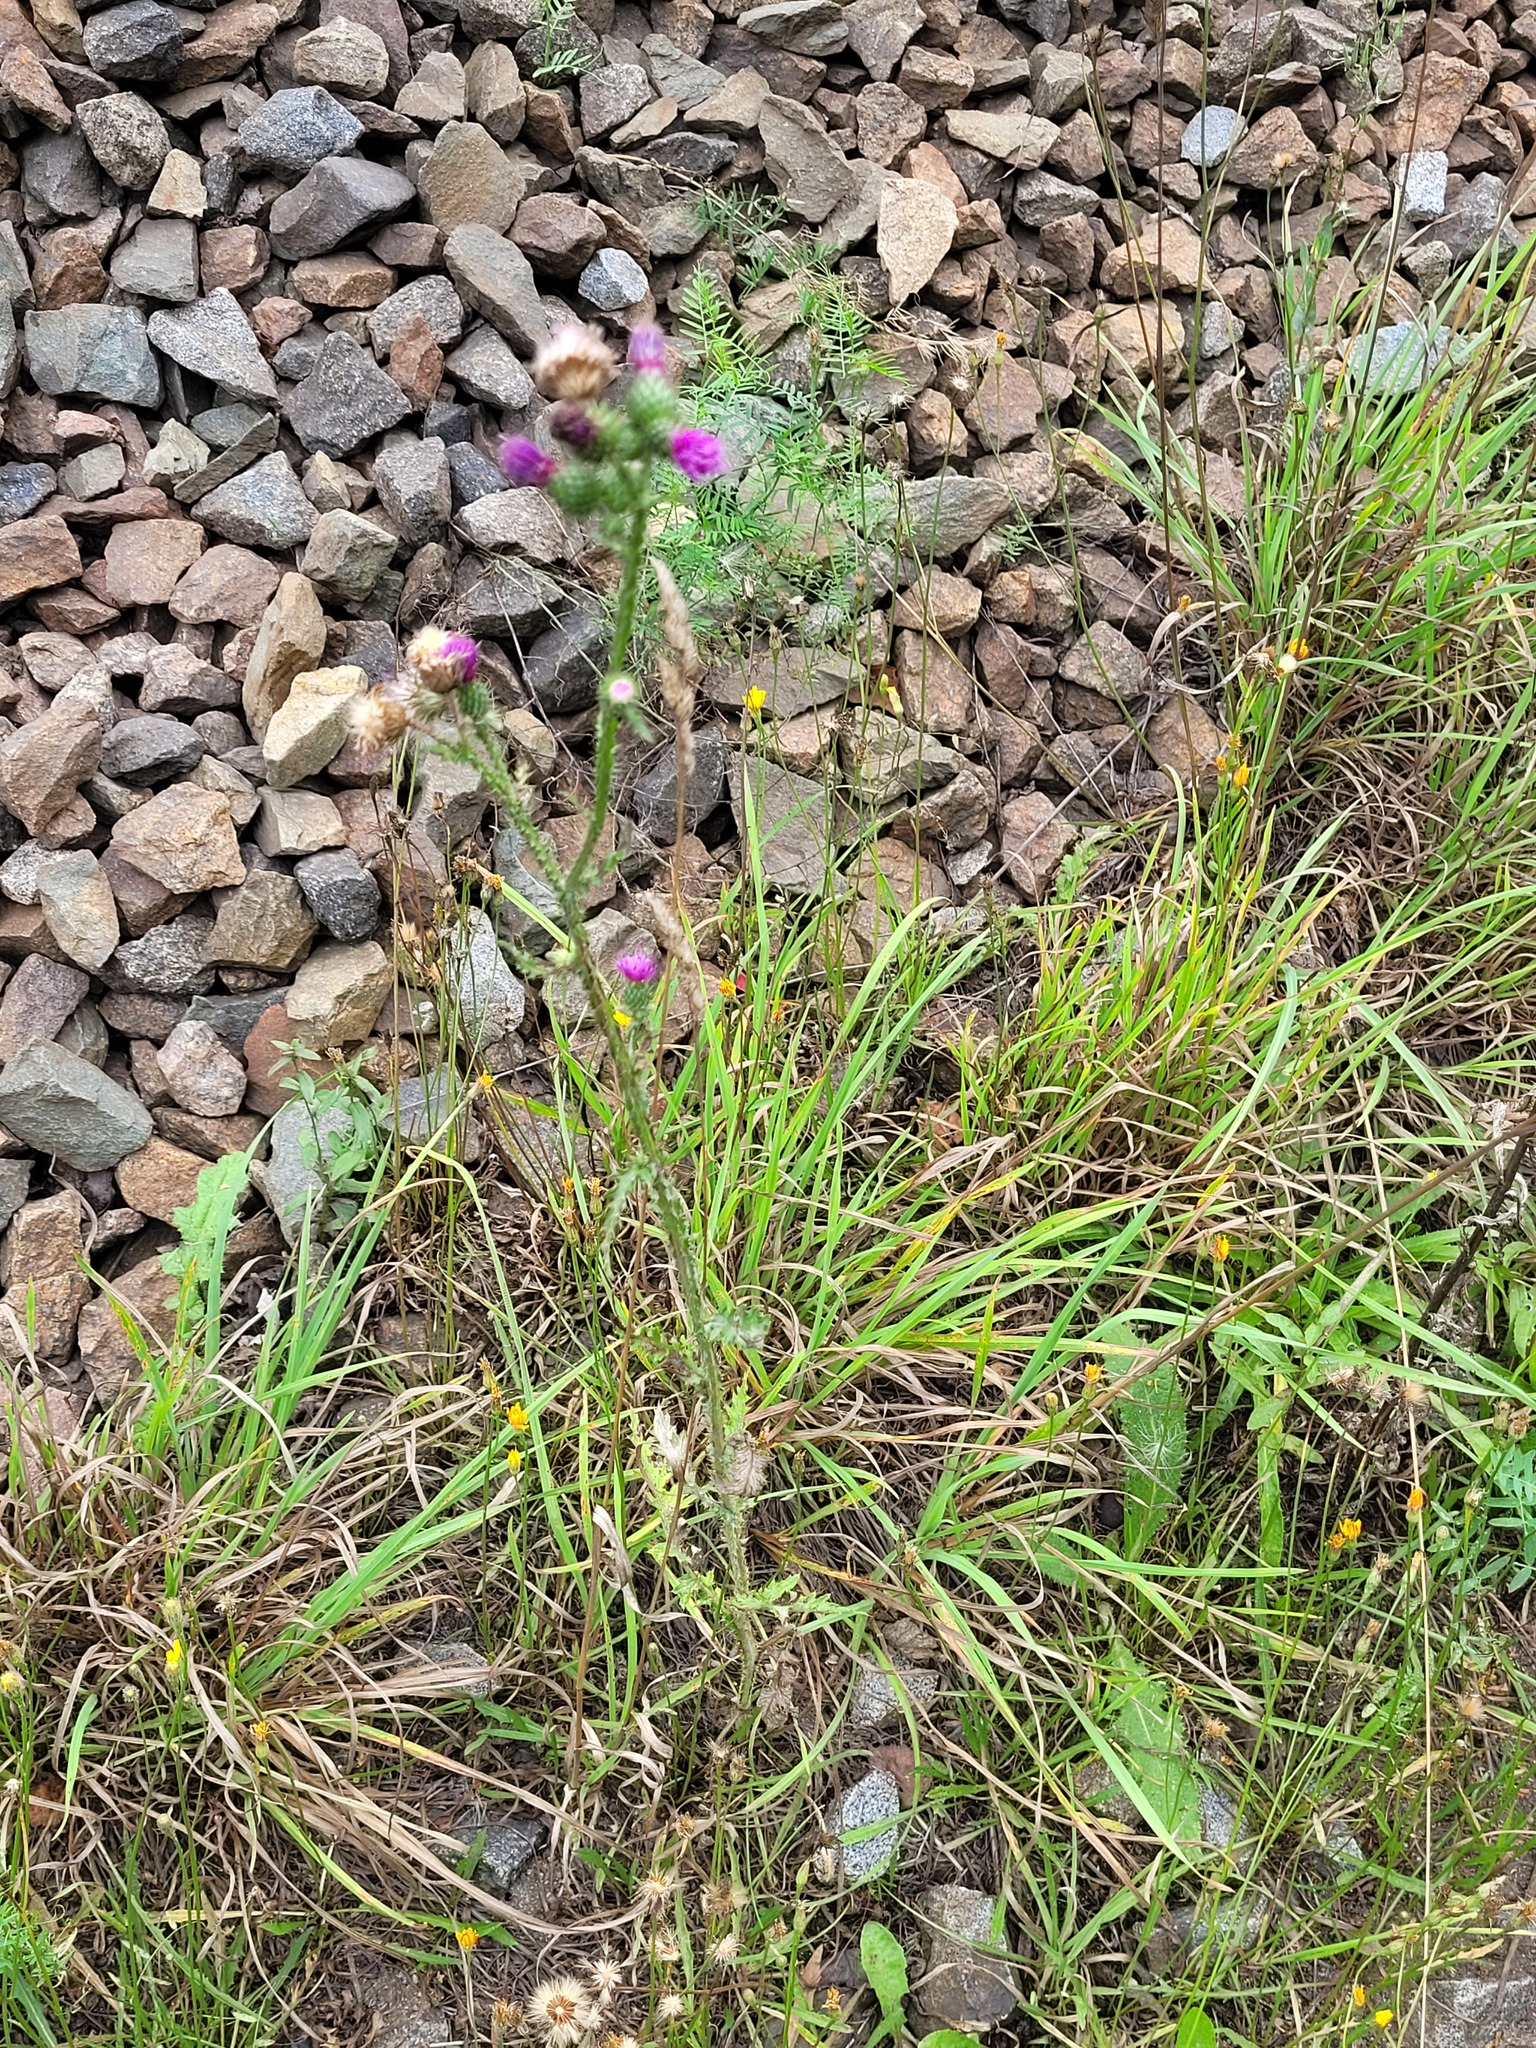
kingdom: Plantae
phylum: Tracheophyta
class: Magnoliopsida
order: Asterales
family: Asteraceae
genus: Carduus
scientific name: Carduus crispus
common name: Welted thistle
